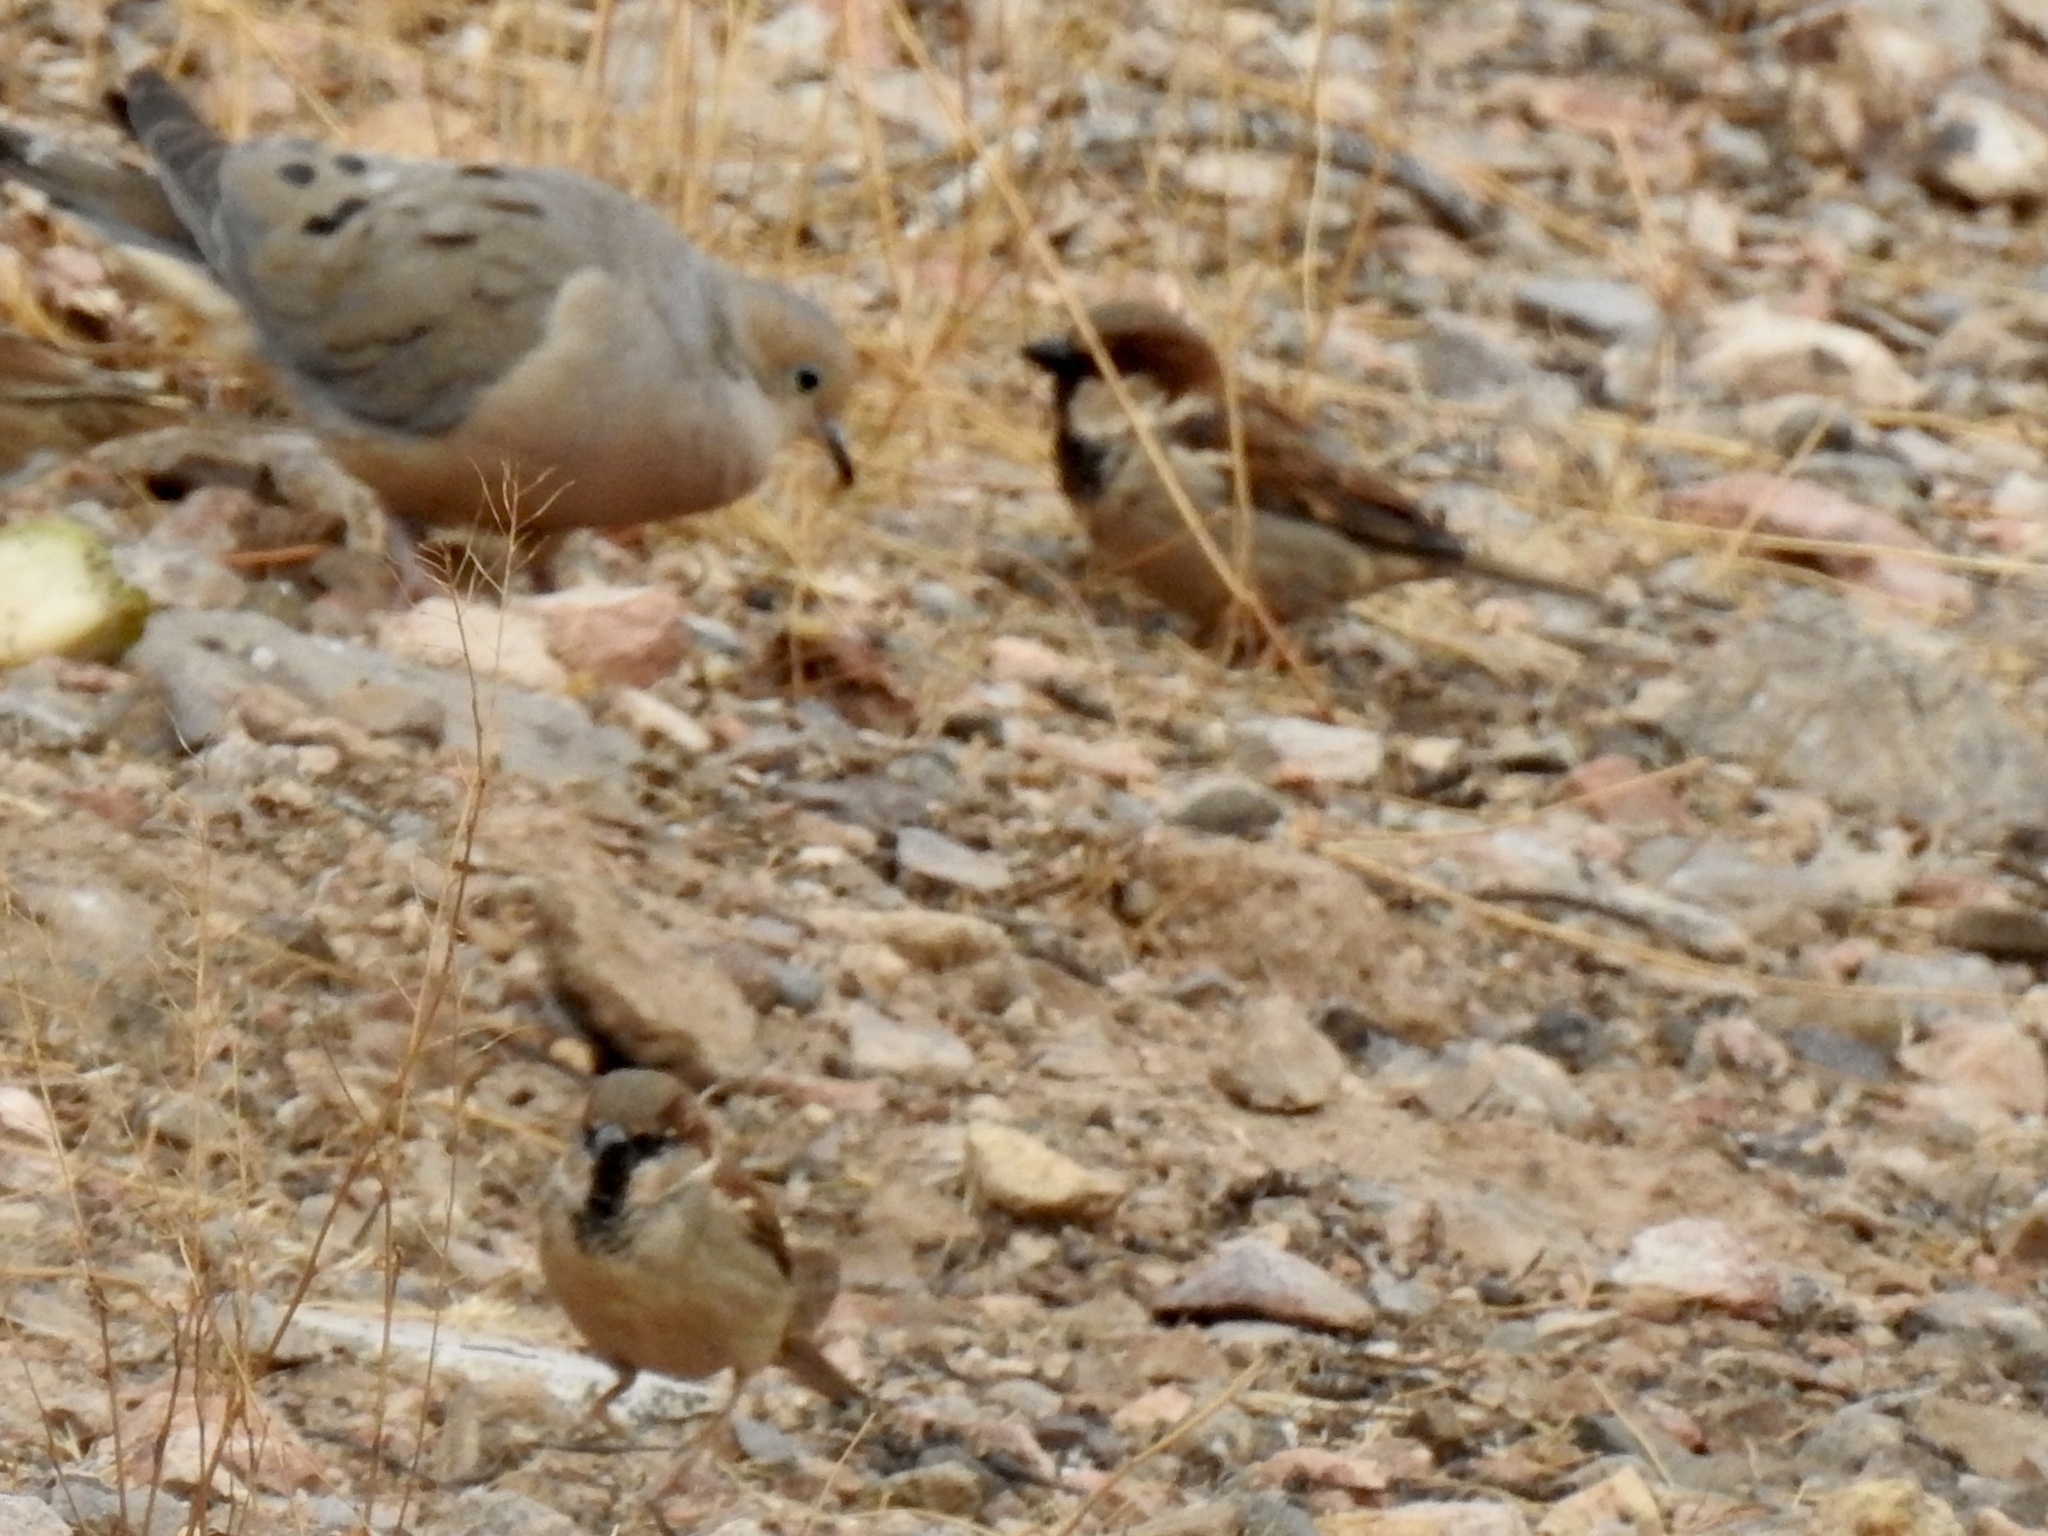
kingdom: Animalia
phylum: Chordata
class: Aves
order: Passeriformes
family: Passeridae
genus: Passer
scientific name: Passer domesticus
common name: House sparrow
